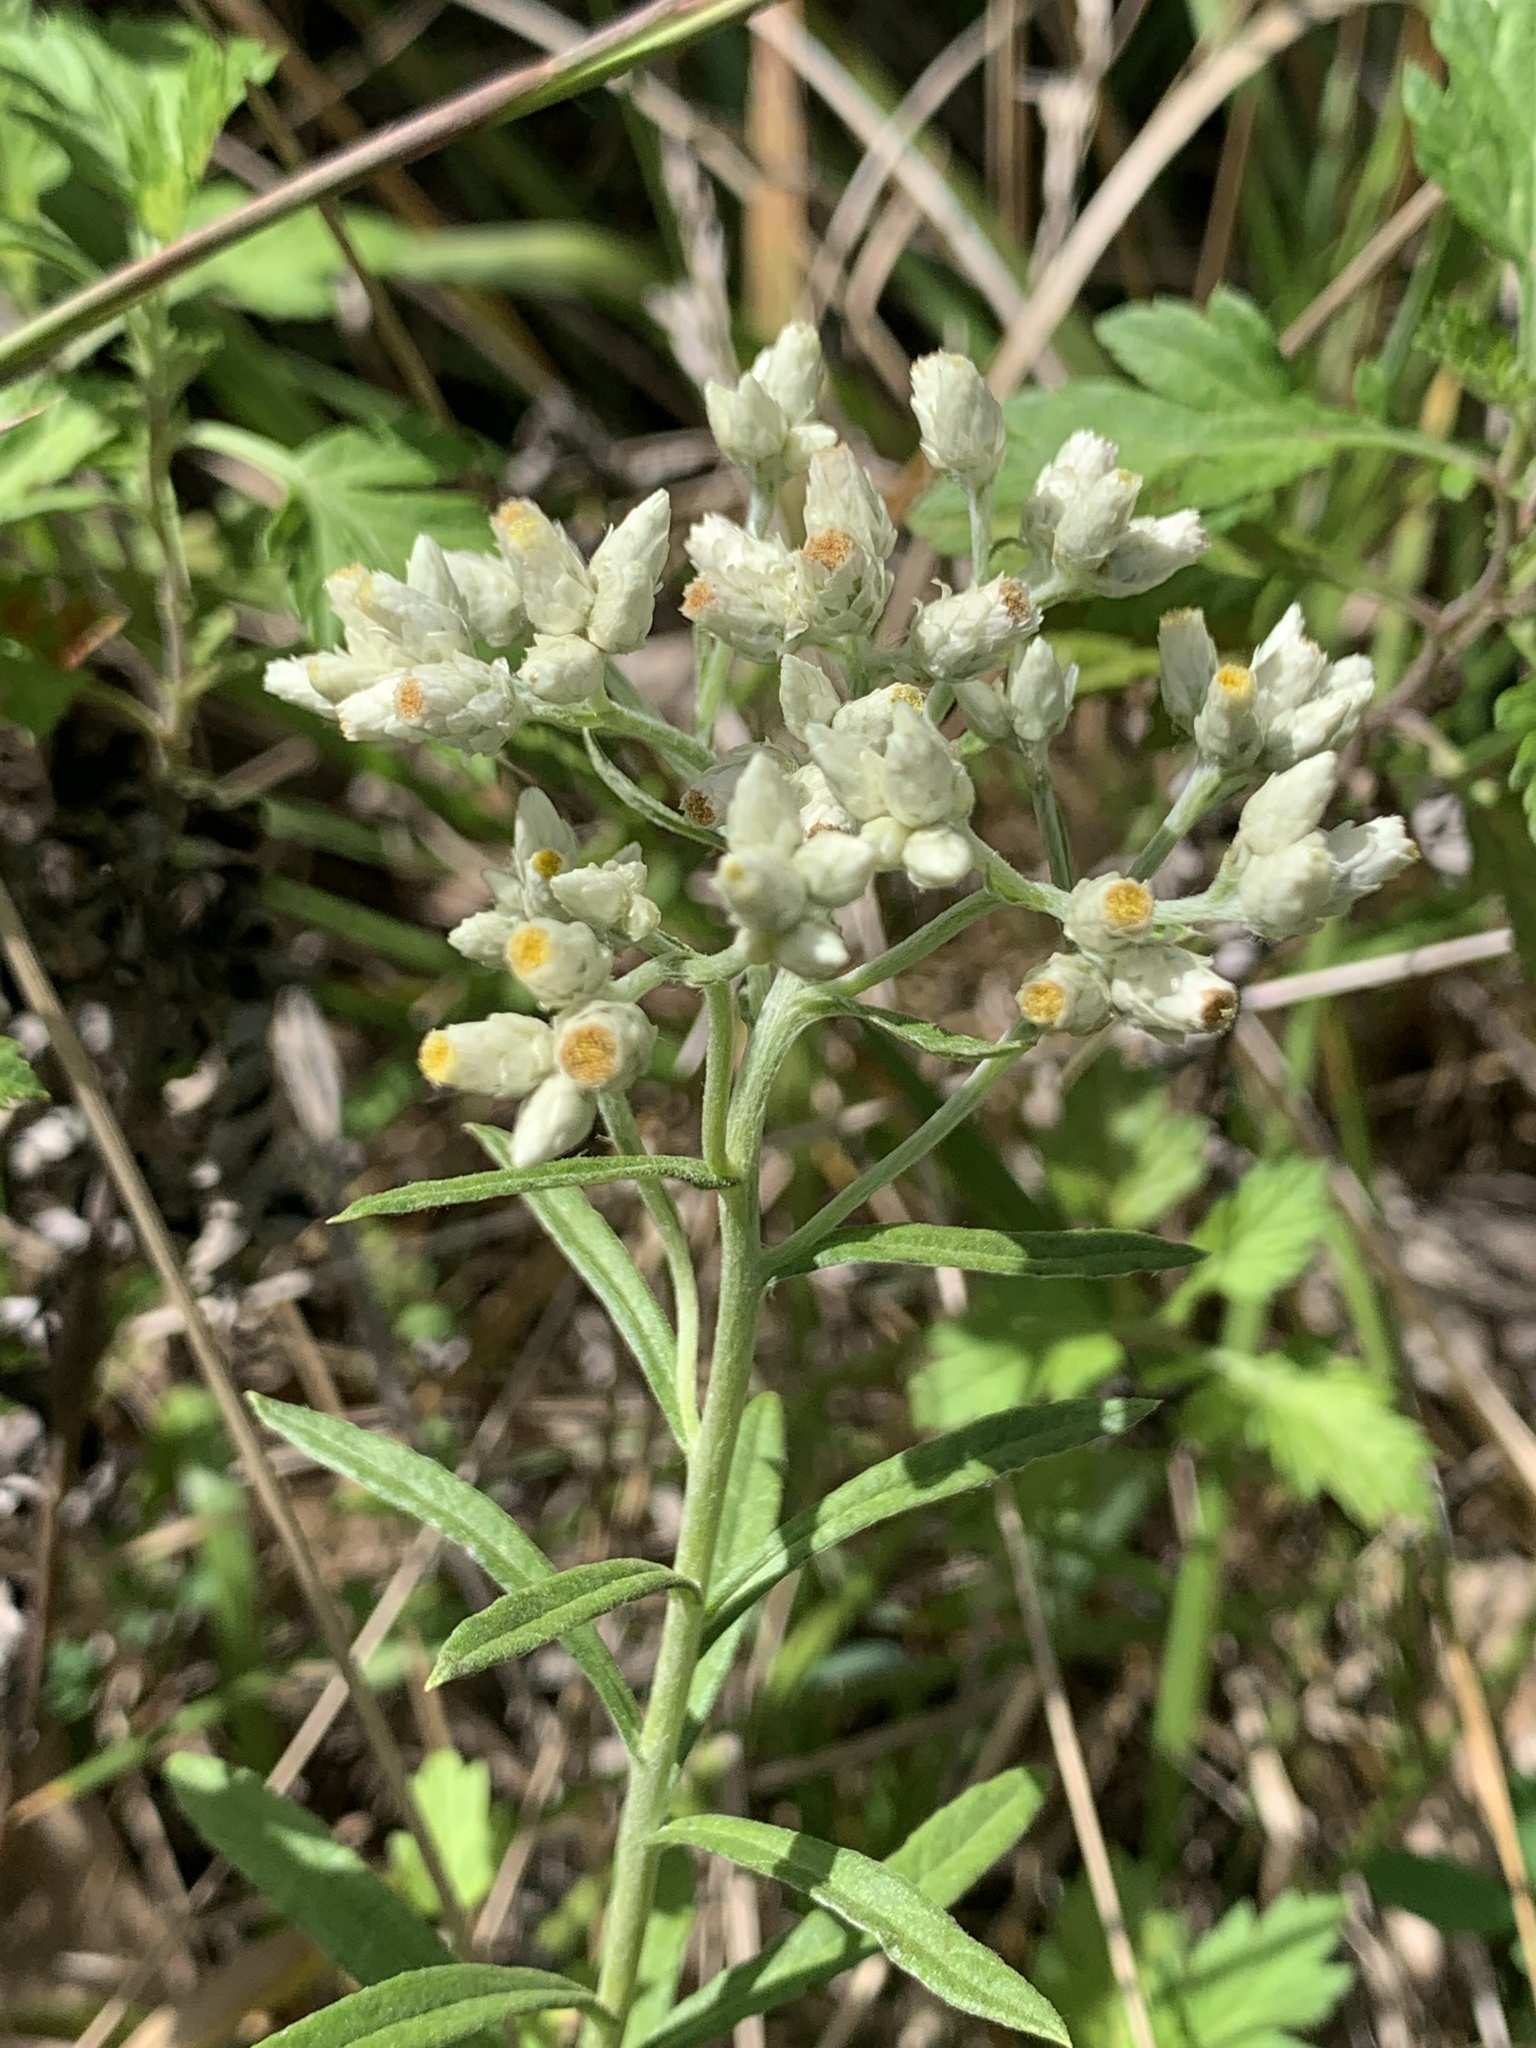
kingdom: Plantae
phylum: Tracheophyta
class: Magnoliopsida
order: Asterales
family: Asteraceae
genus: Pseudognaphalium
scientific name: Pseudognaphalium obtusifolium
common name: Eastern rabbit-tobacco
